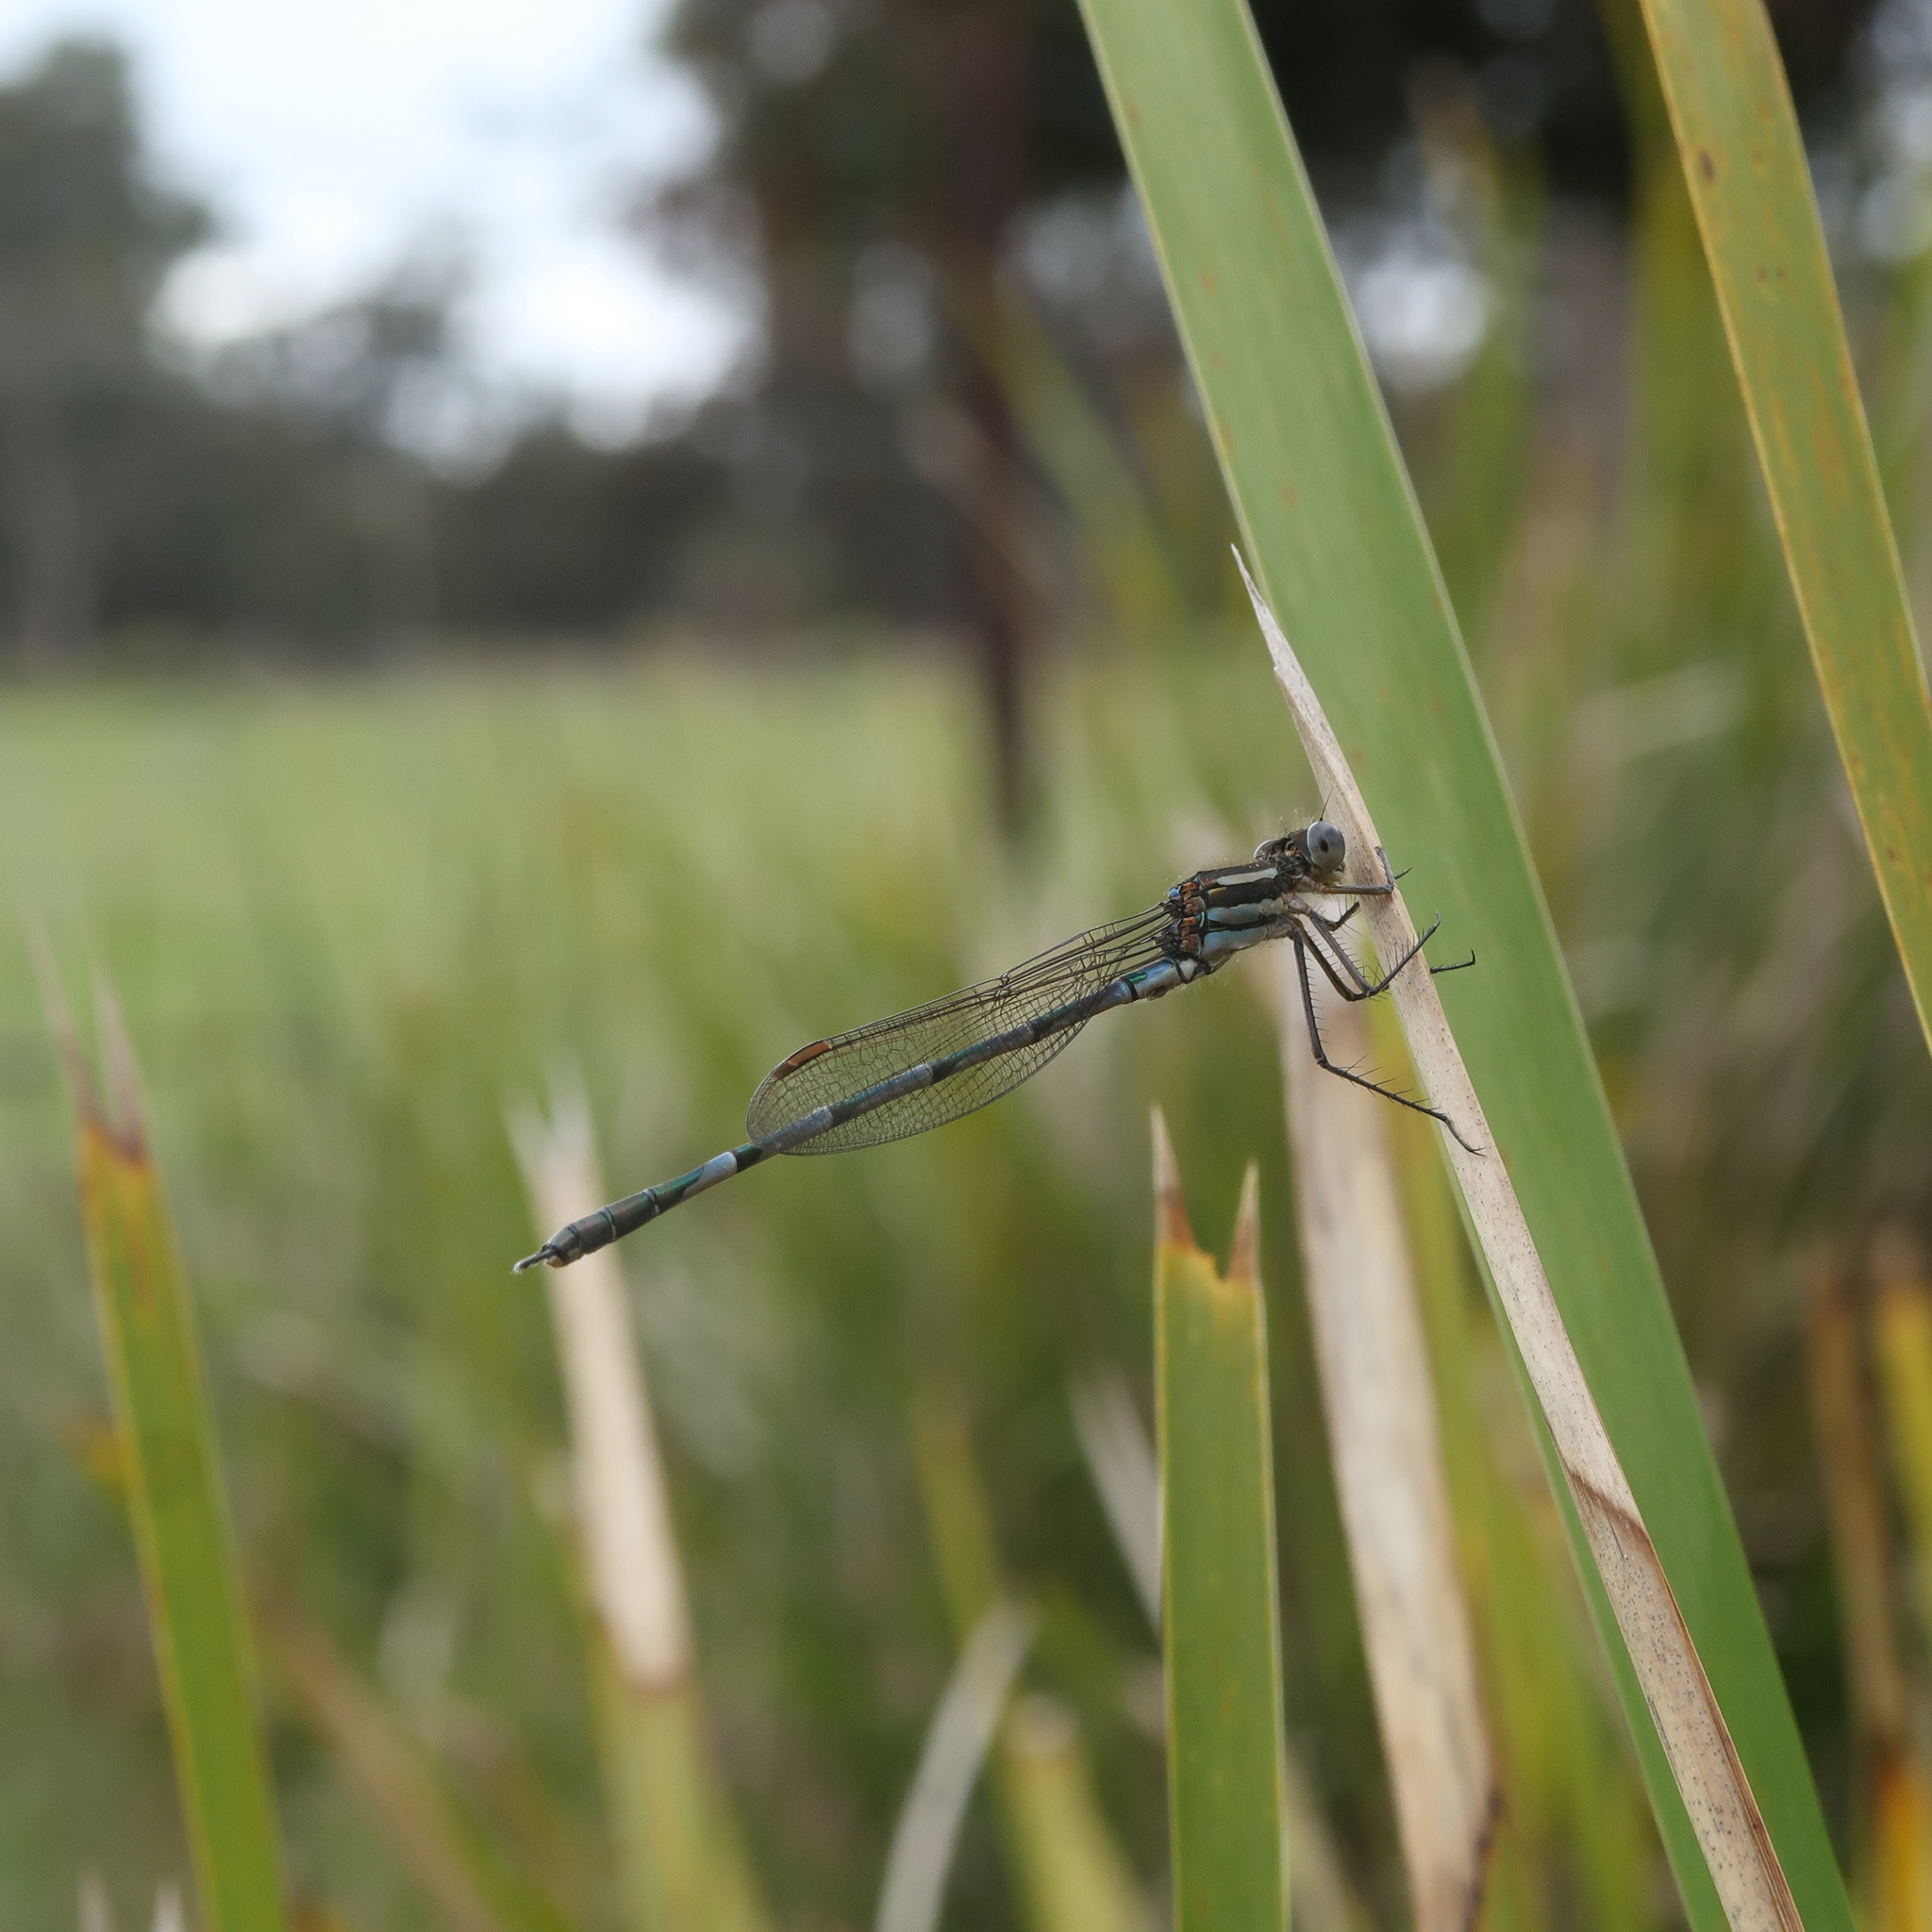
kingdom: Animalia
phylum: Arthropoda
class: Insecta
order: Odonata
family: Lestidae
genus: Austrolestes
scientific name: Austrolestes annulosus
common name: Blue ringtail
